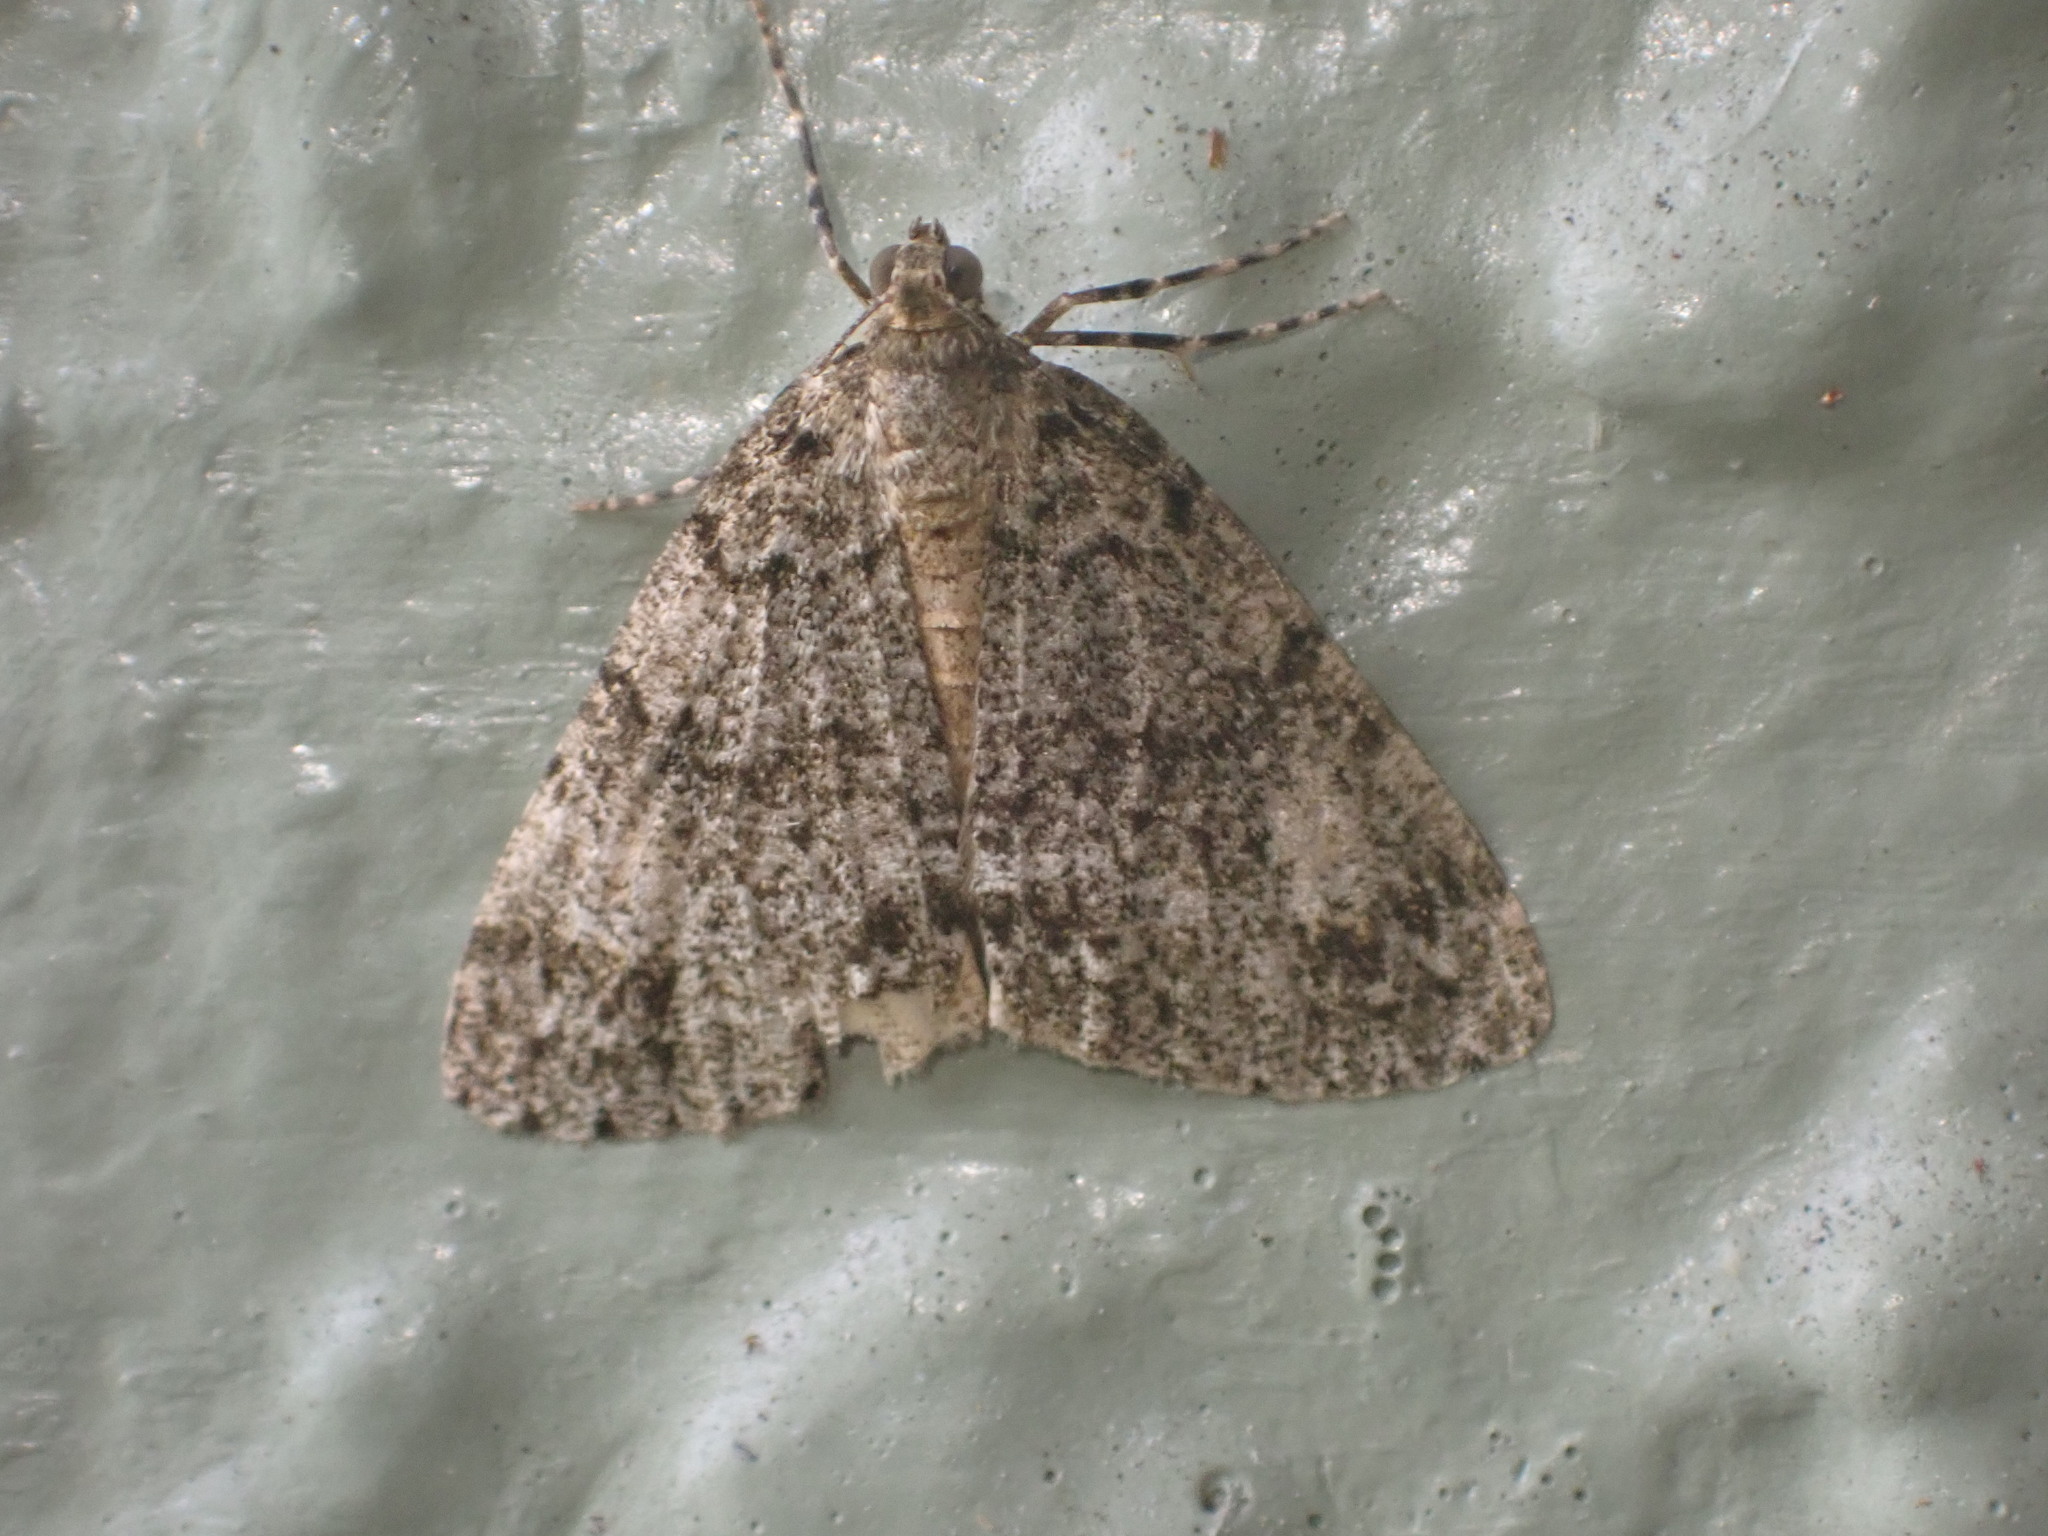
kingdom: Animalia
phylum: Arthropoda
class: Insecta
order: Lepidoptera
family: Geometridae
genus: Pseudocoremia
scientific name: Pseudocoremia indistincta
